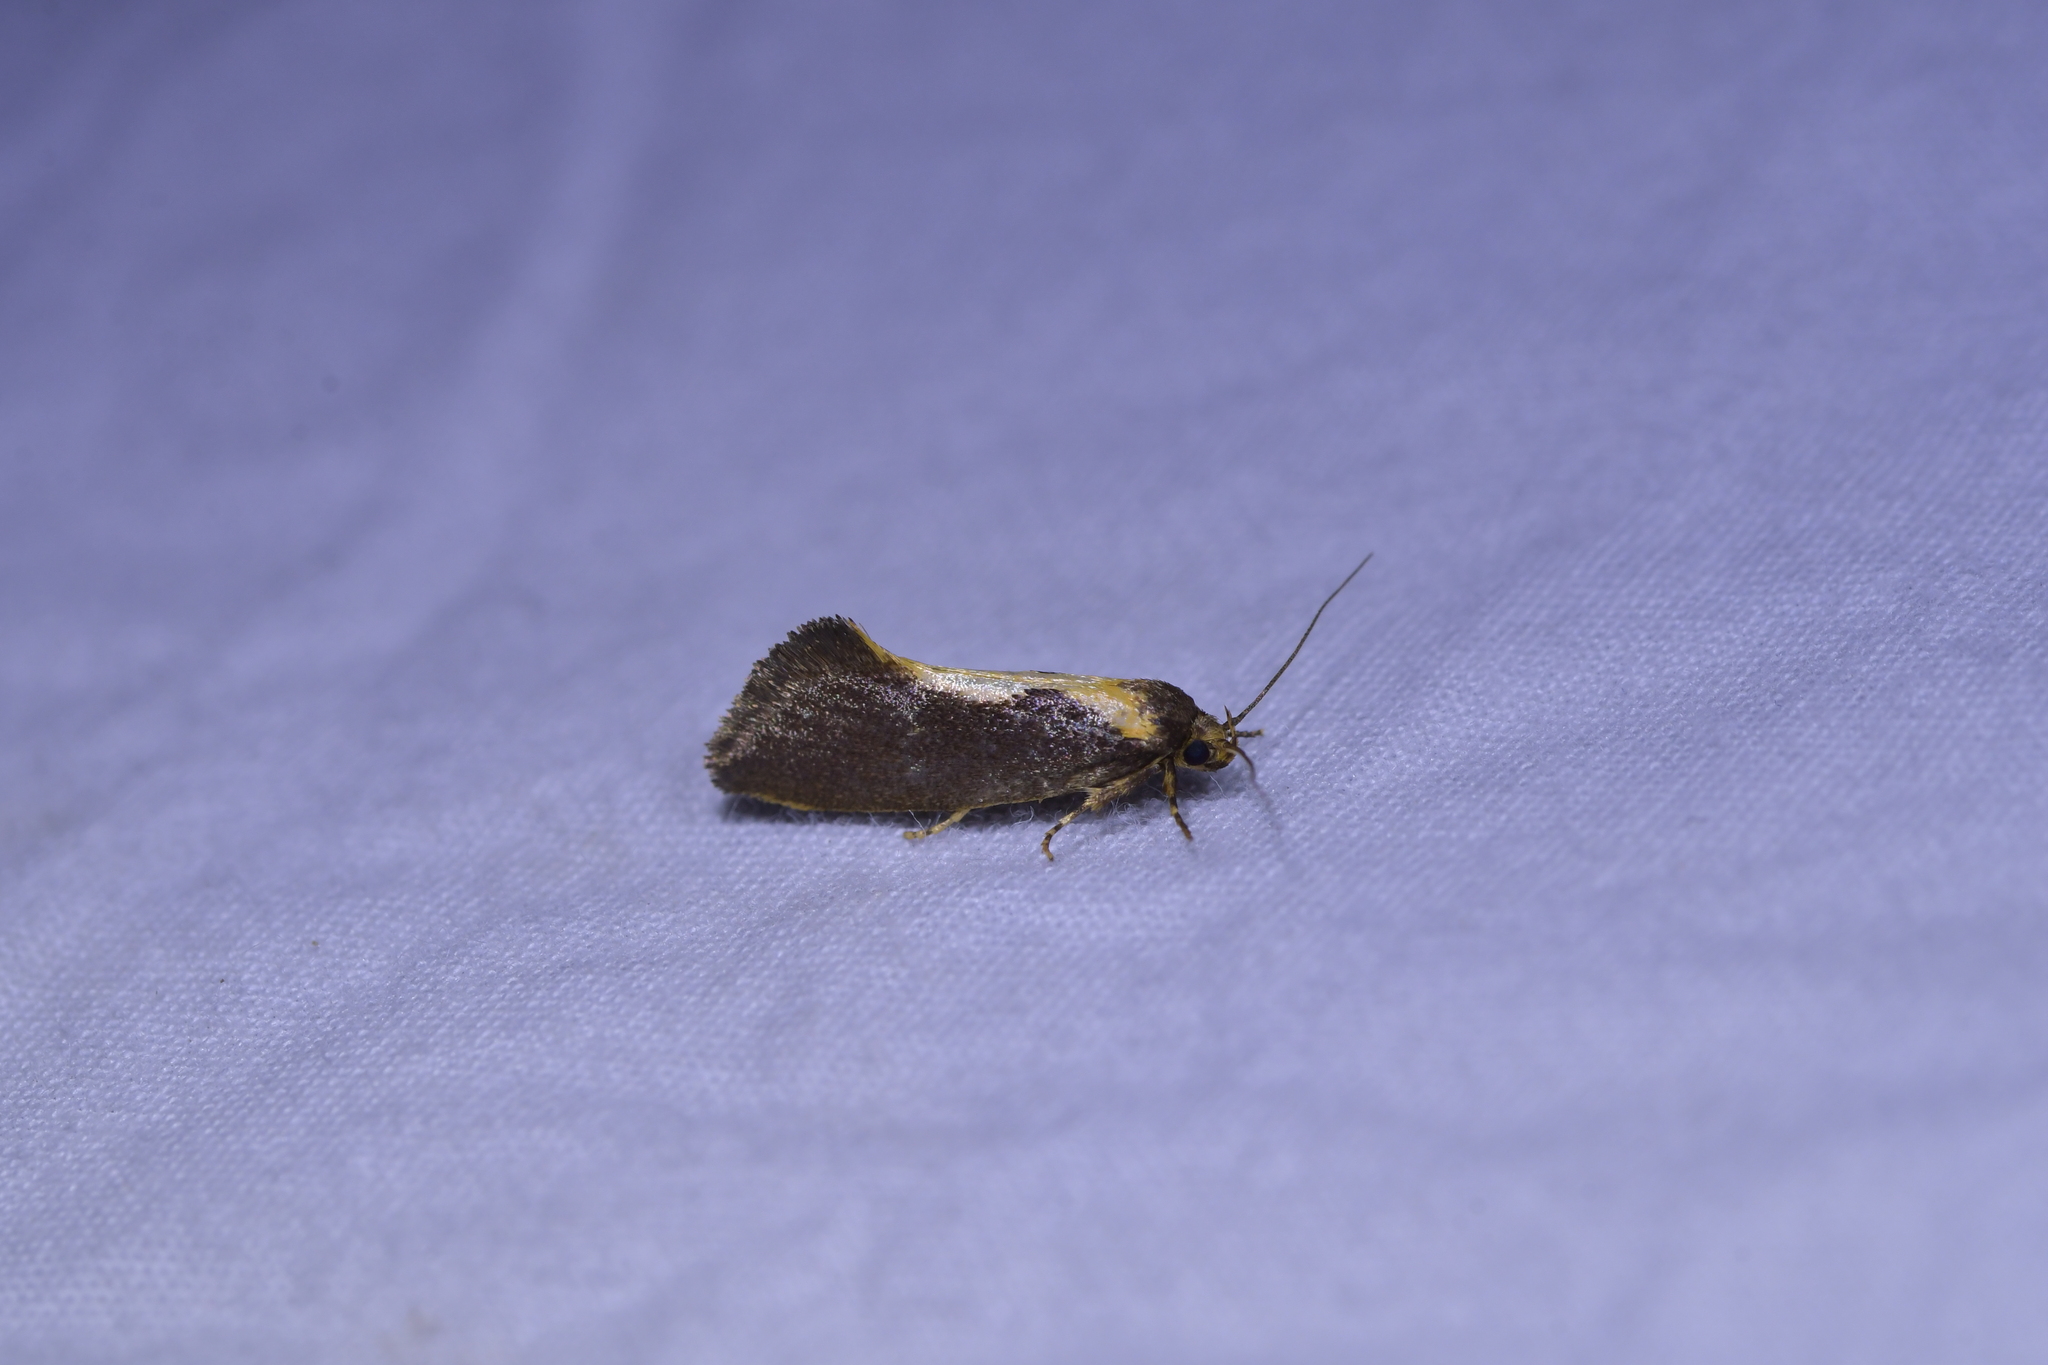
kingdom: Animalia
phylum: Arthropoda
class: Insecta
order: Lepidoptera
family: Oecophoridae
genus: Tingena
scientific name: Tingena basella
